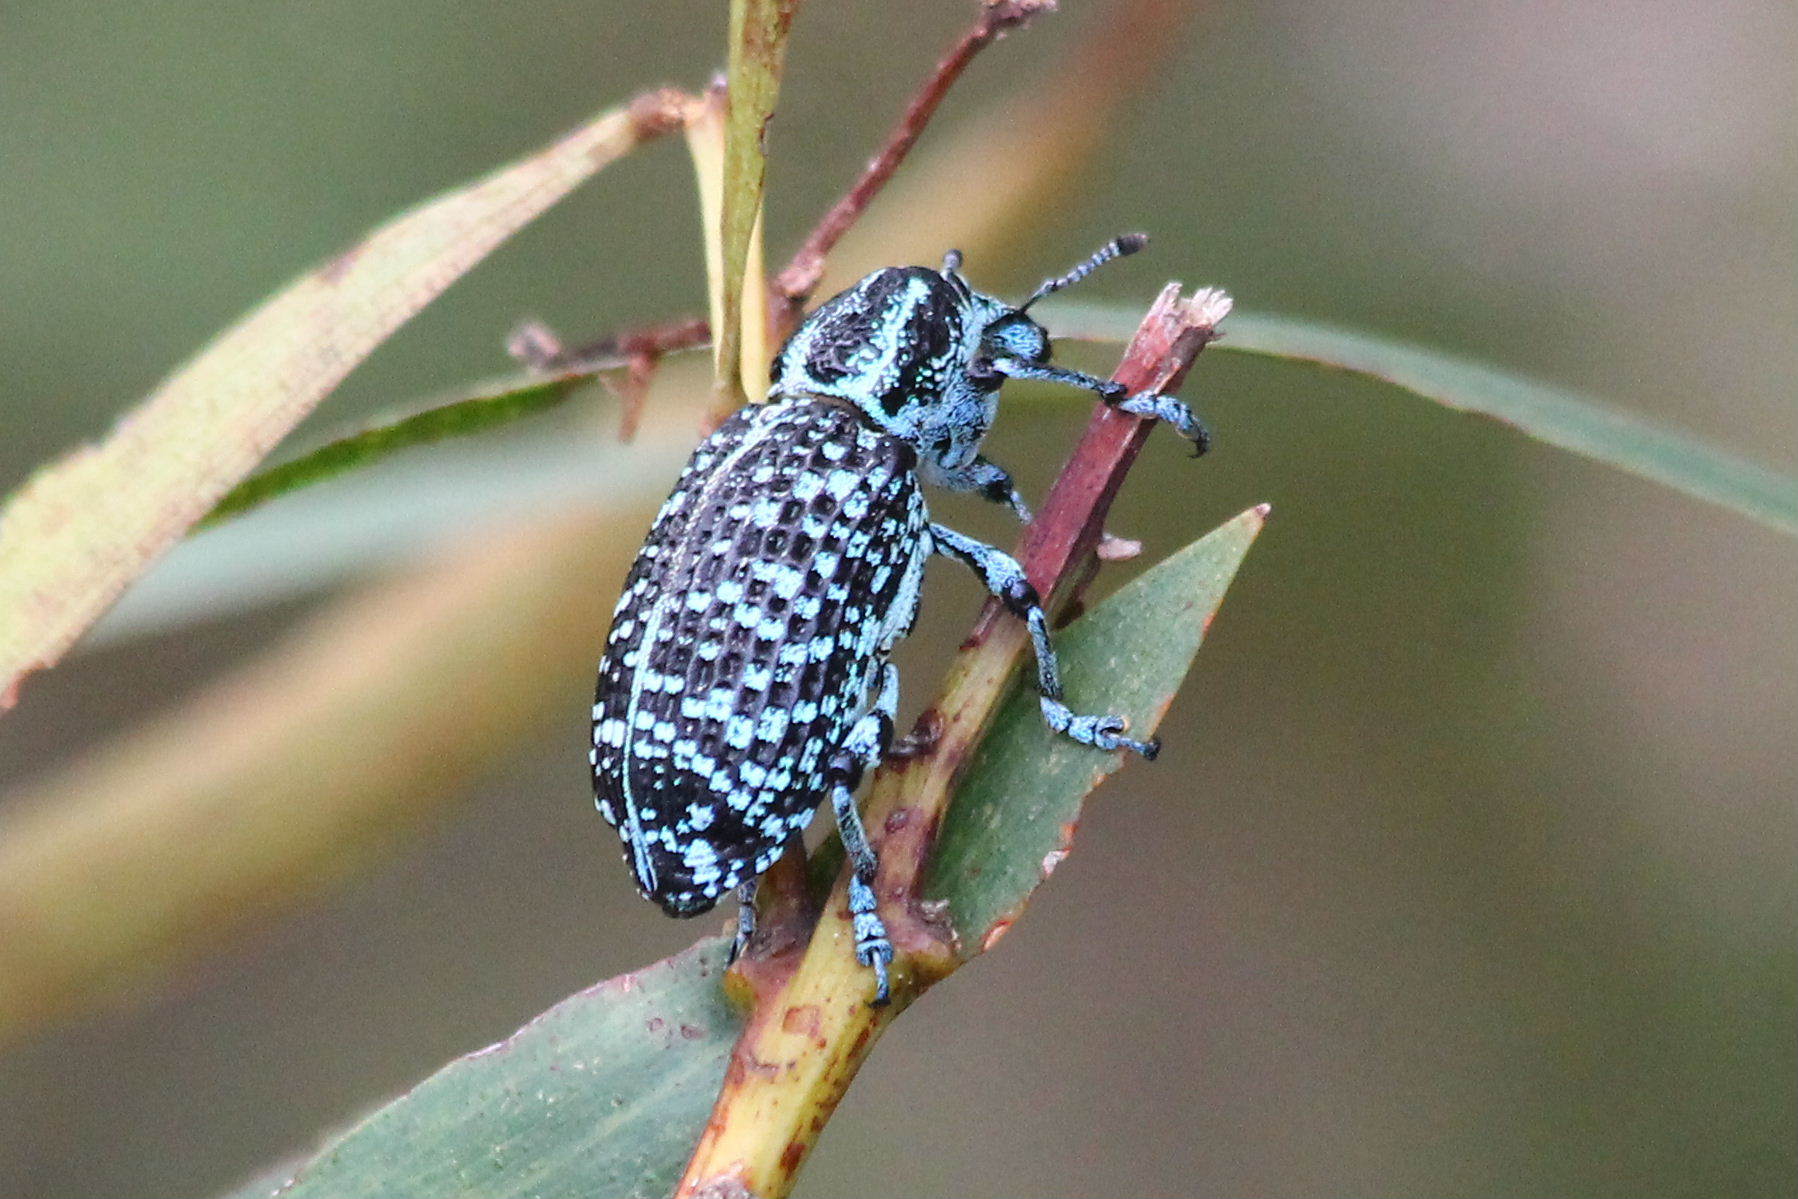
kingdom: Animalia
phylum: Arthropoda
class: Insecta
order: Coleoptera
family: Curculionidae
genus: Chrysolopus
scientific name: Chrysolopus spectabilis
